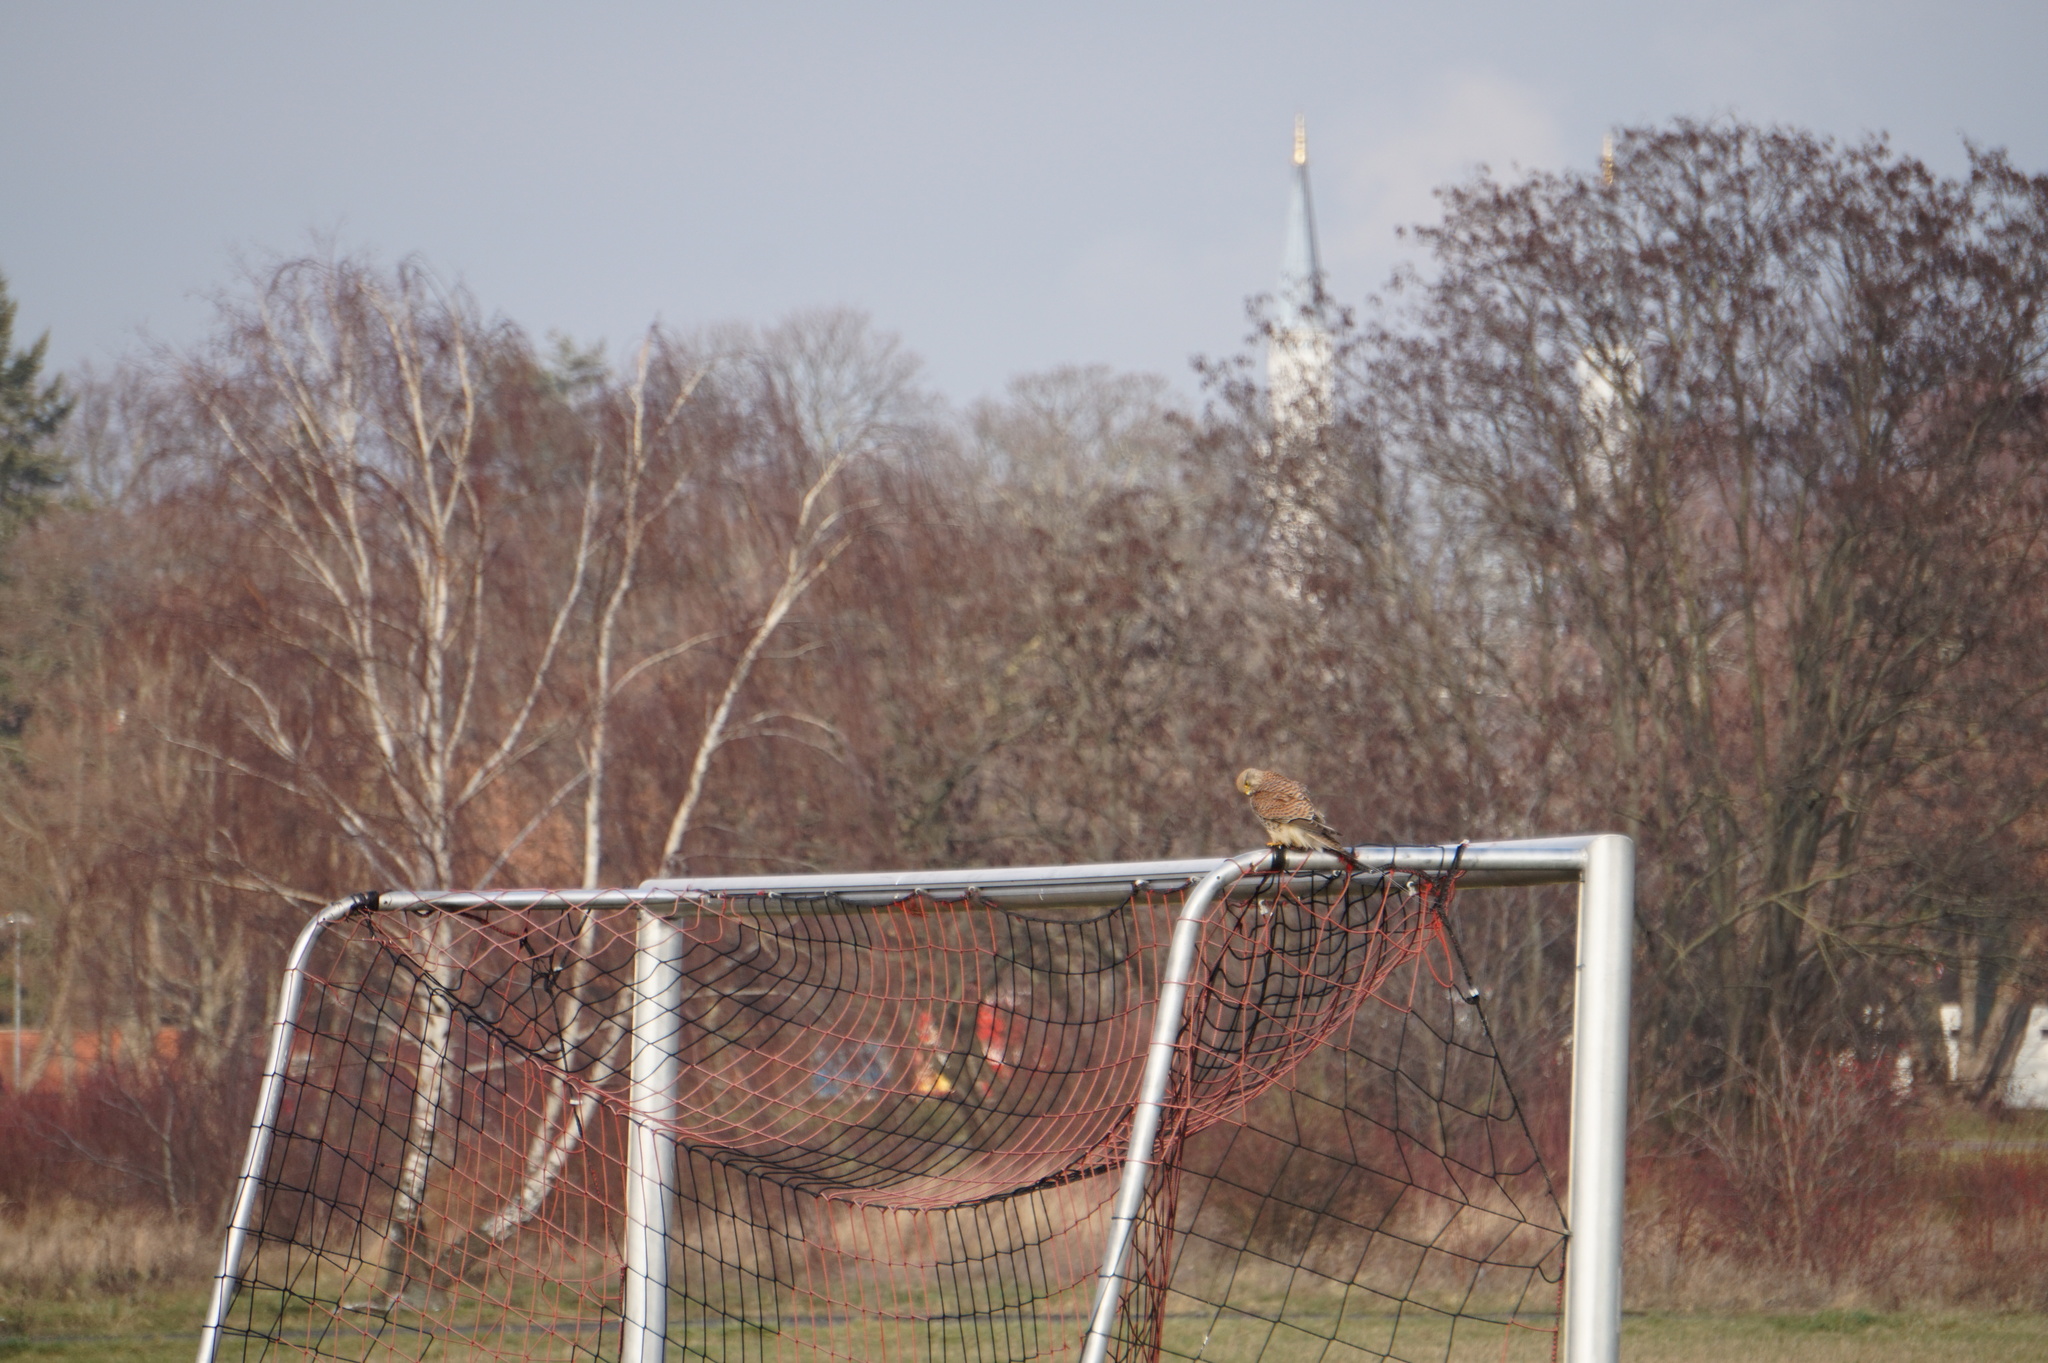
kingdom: Animalia
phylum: Chordata
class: Aves
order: Falconiformes
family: Falconidae
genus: Falco
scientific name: Falco tinnunculus
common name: Common kestrel
